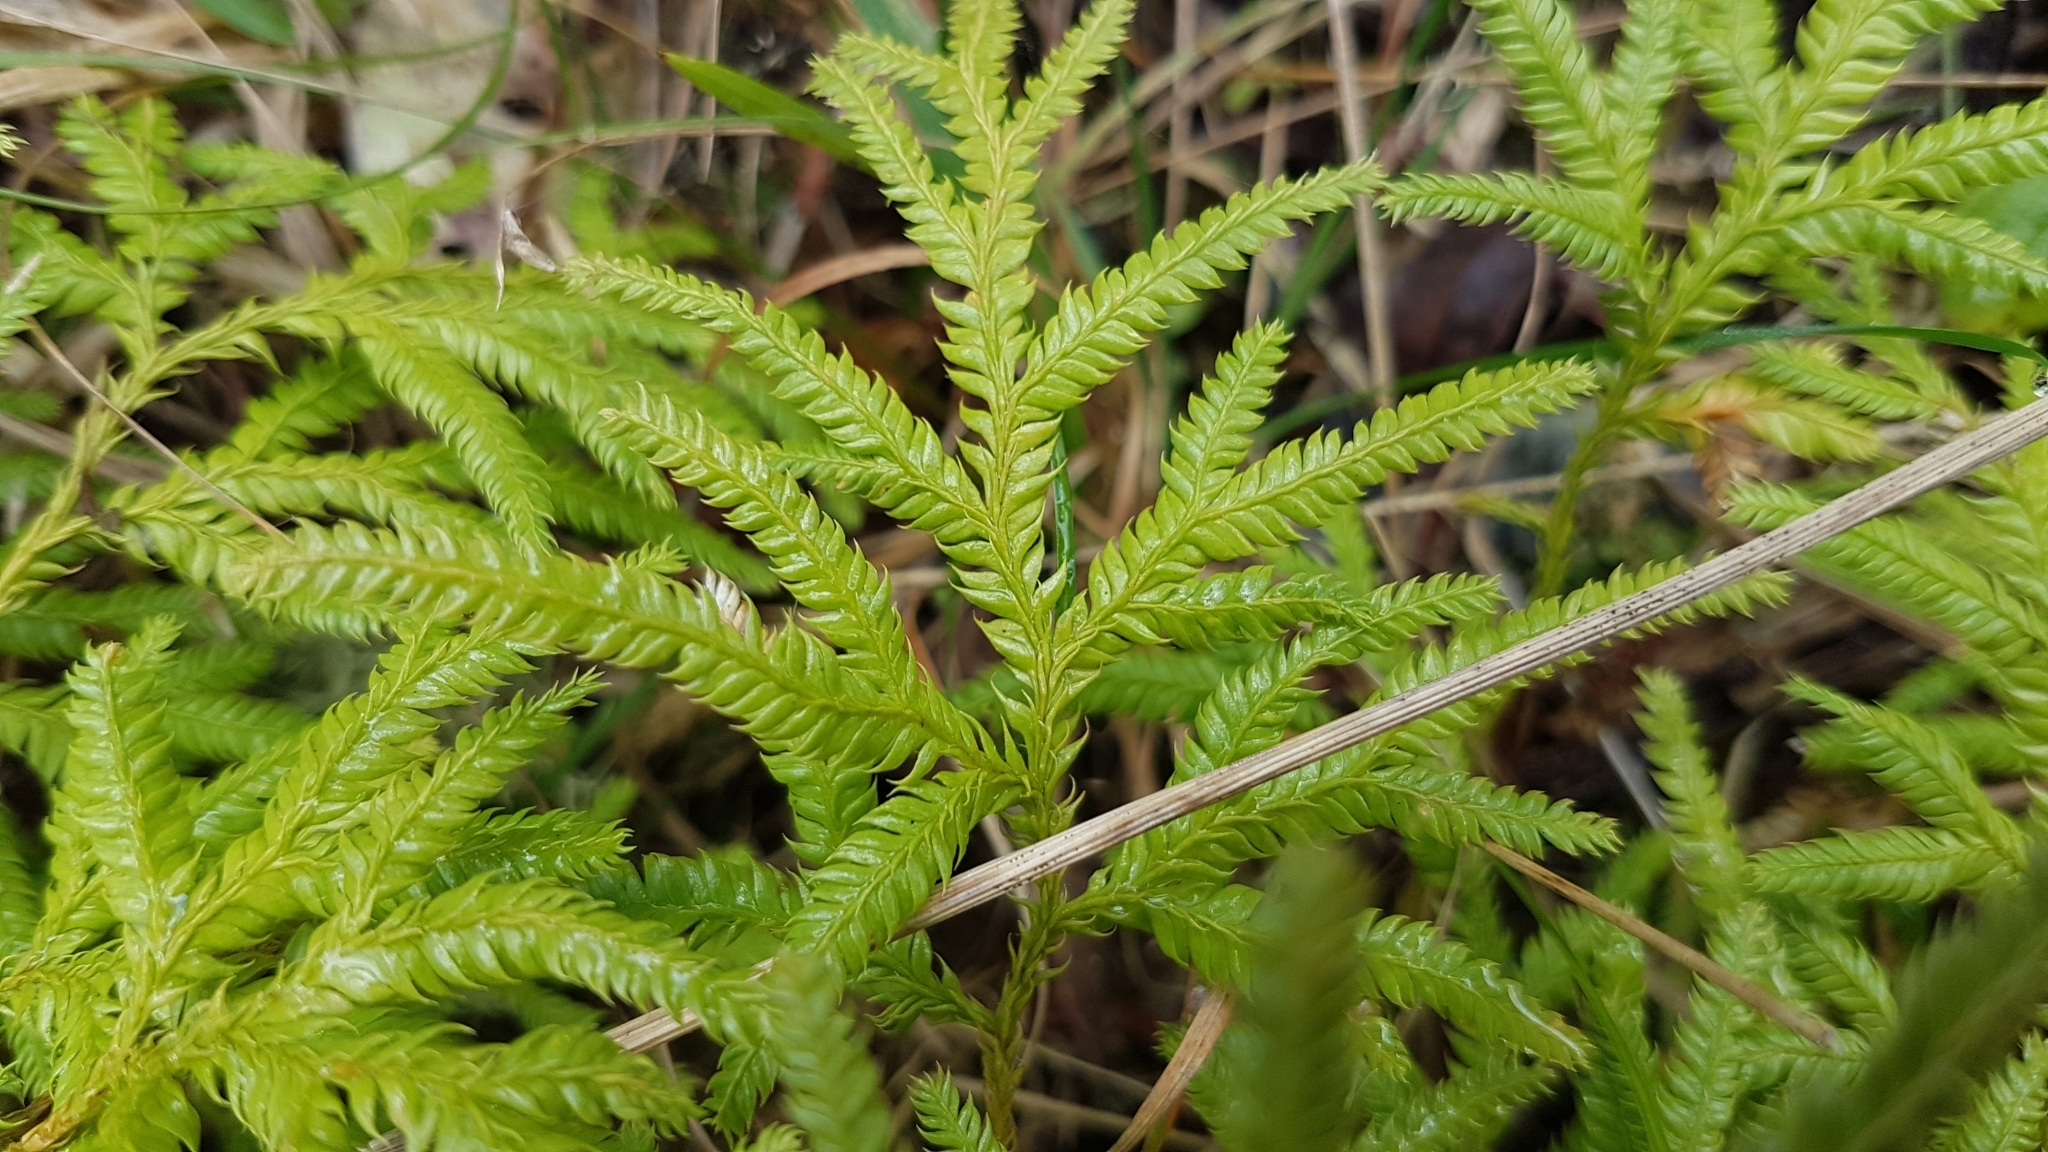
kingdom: Plantae
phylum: Tracheophyta
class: Lycopodiopsida
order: Lycopodiales
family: Lycopodiaceae
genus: Lycopodium
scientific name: Lycopodium volubile
